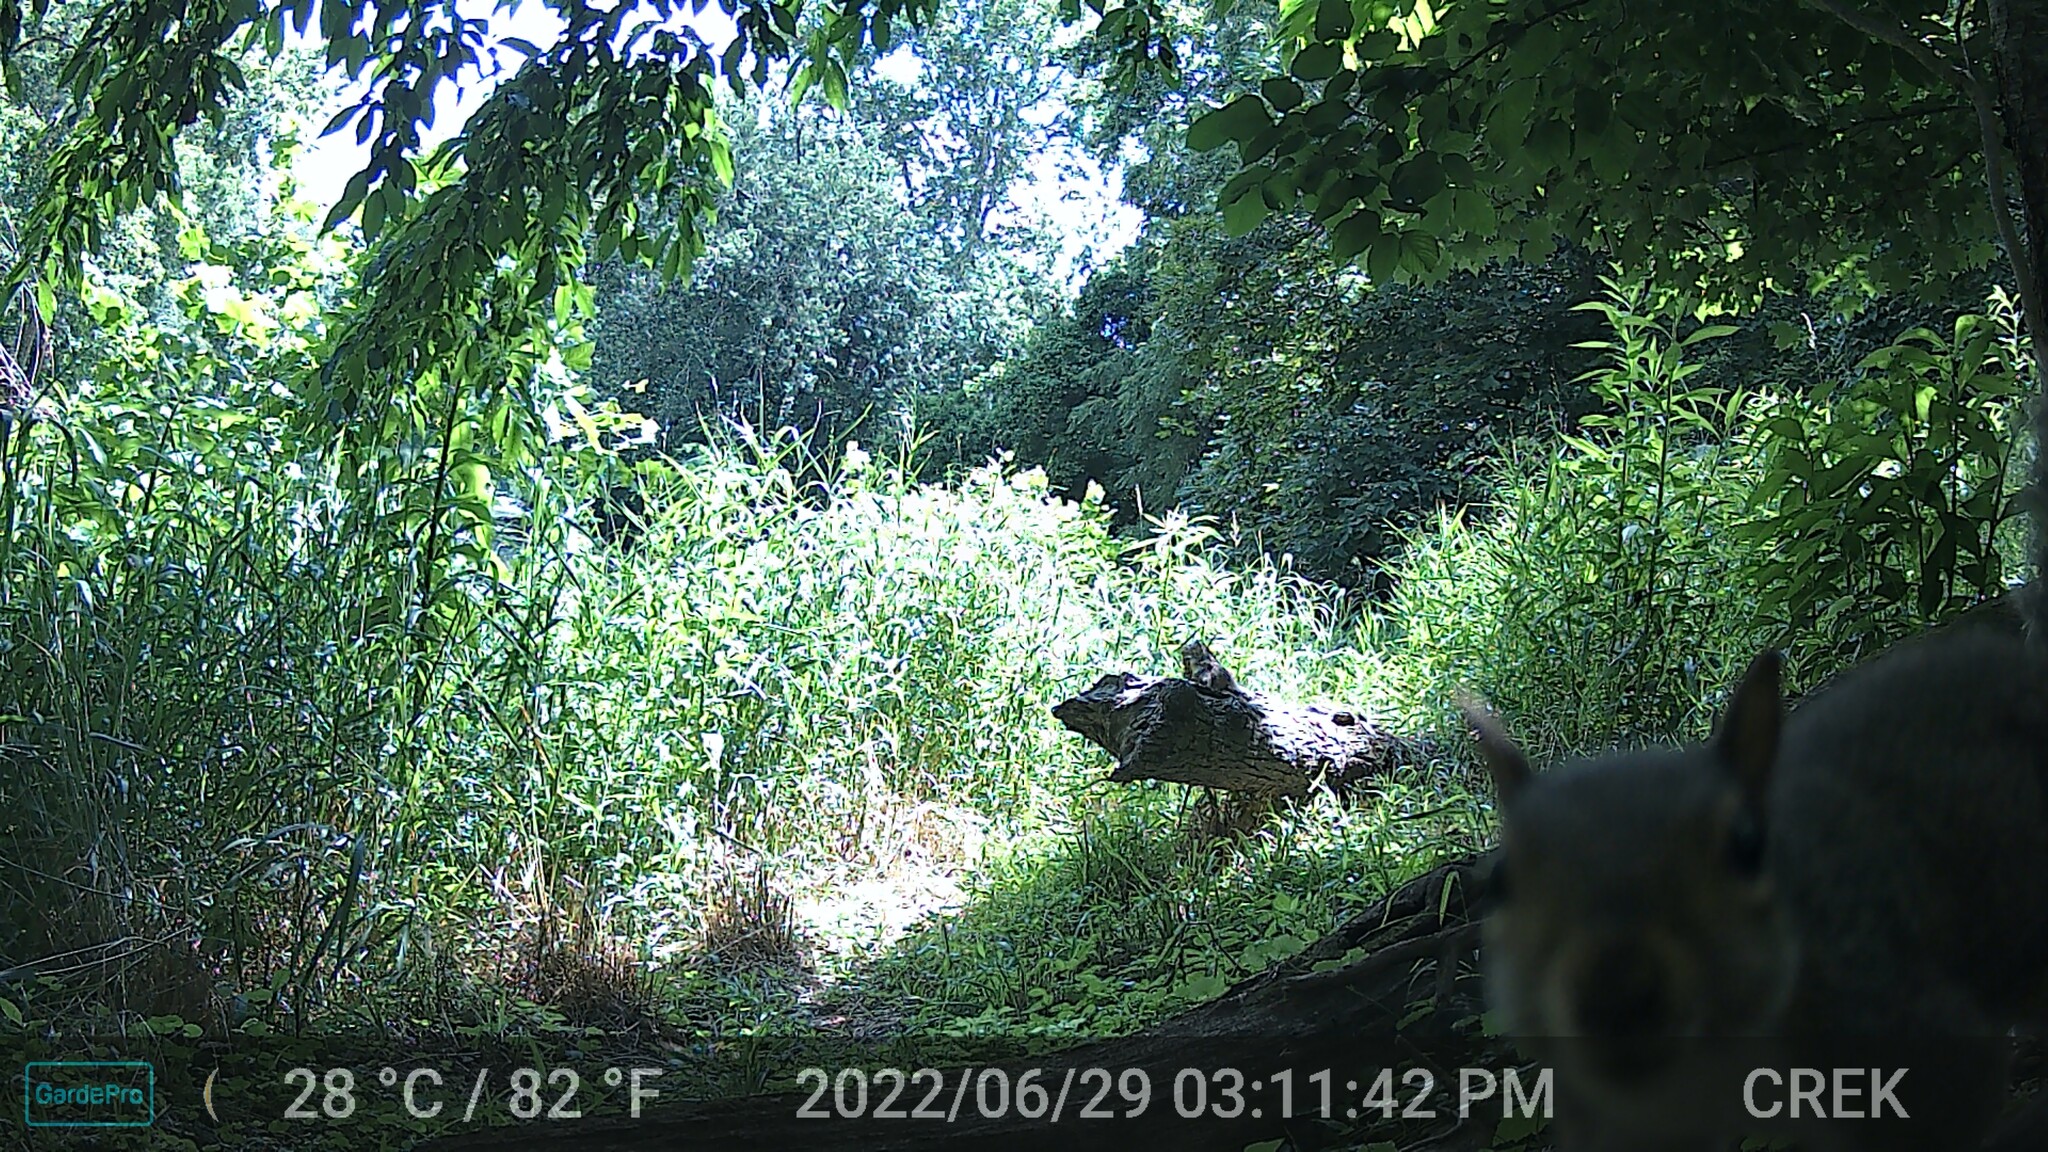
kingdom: Animalia
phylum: Chordata
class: Mammalia
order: Rodentia
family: Sciuridae
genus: Sciurus
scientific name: Sciurus carolinensis
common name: Eastern gray squirrel
